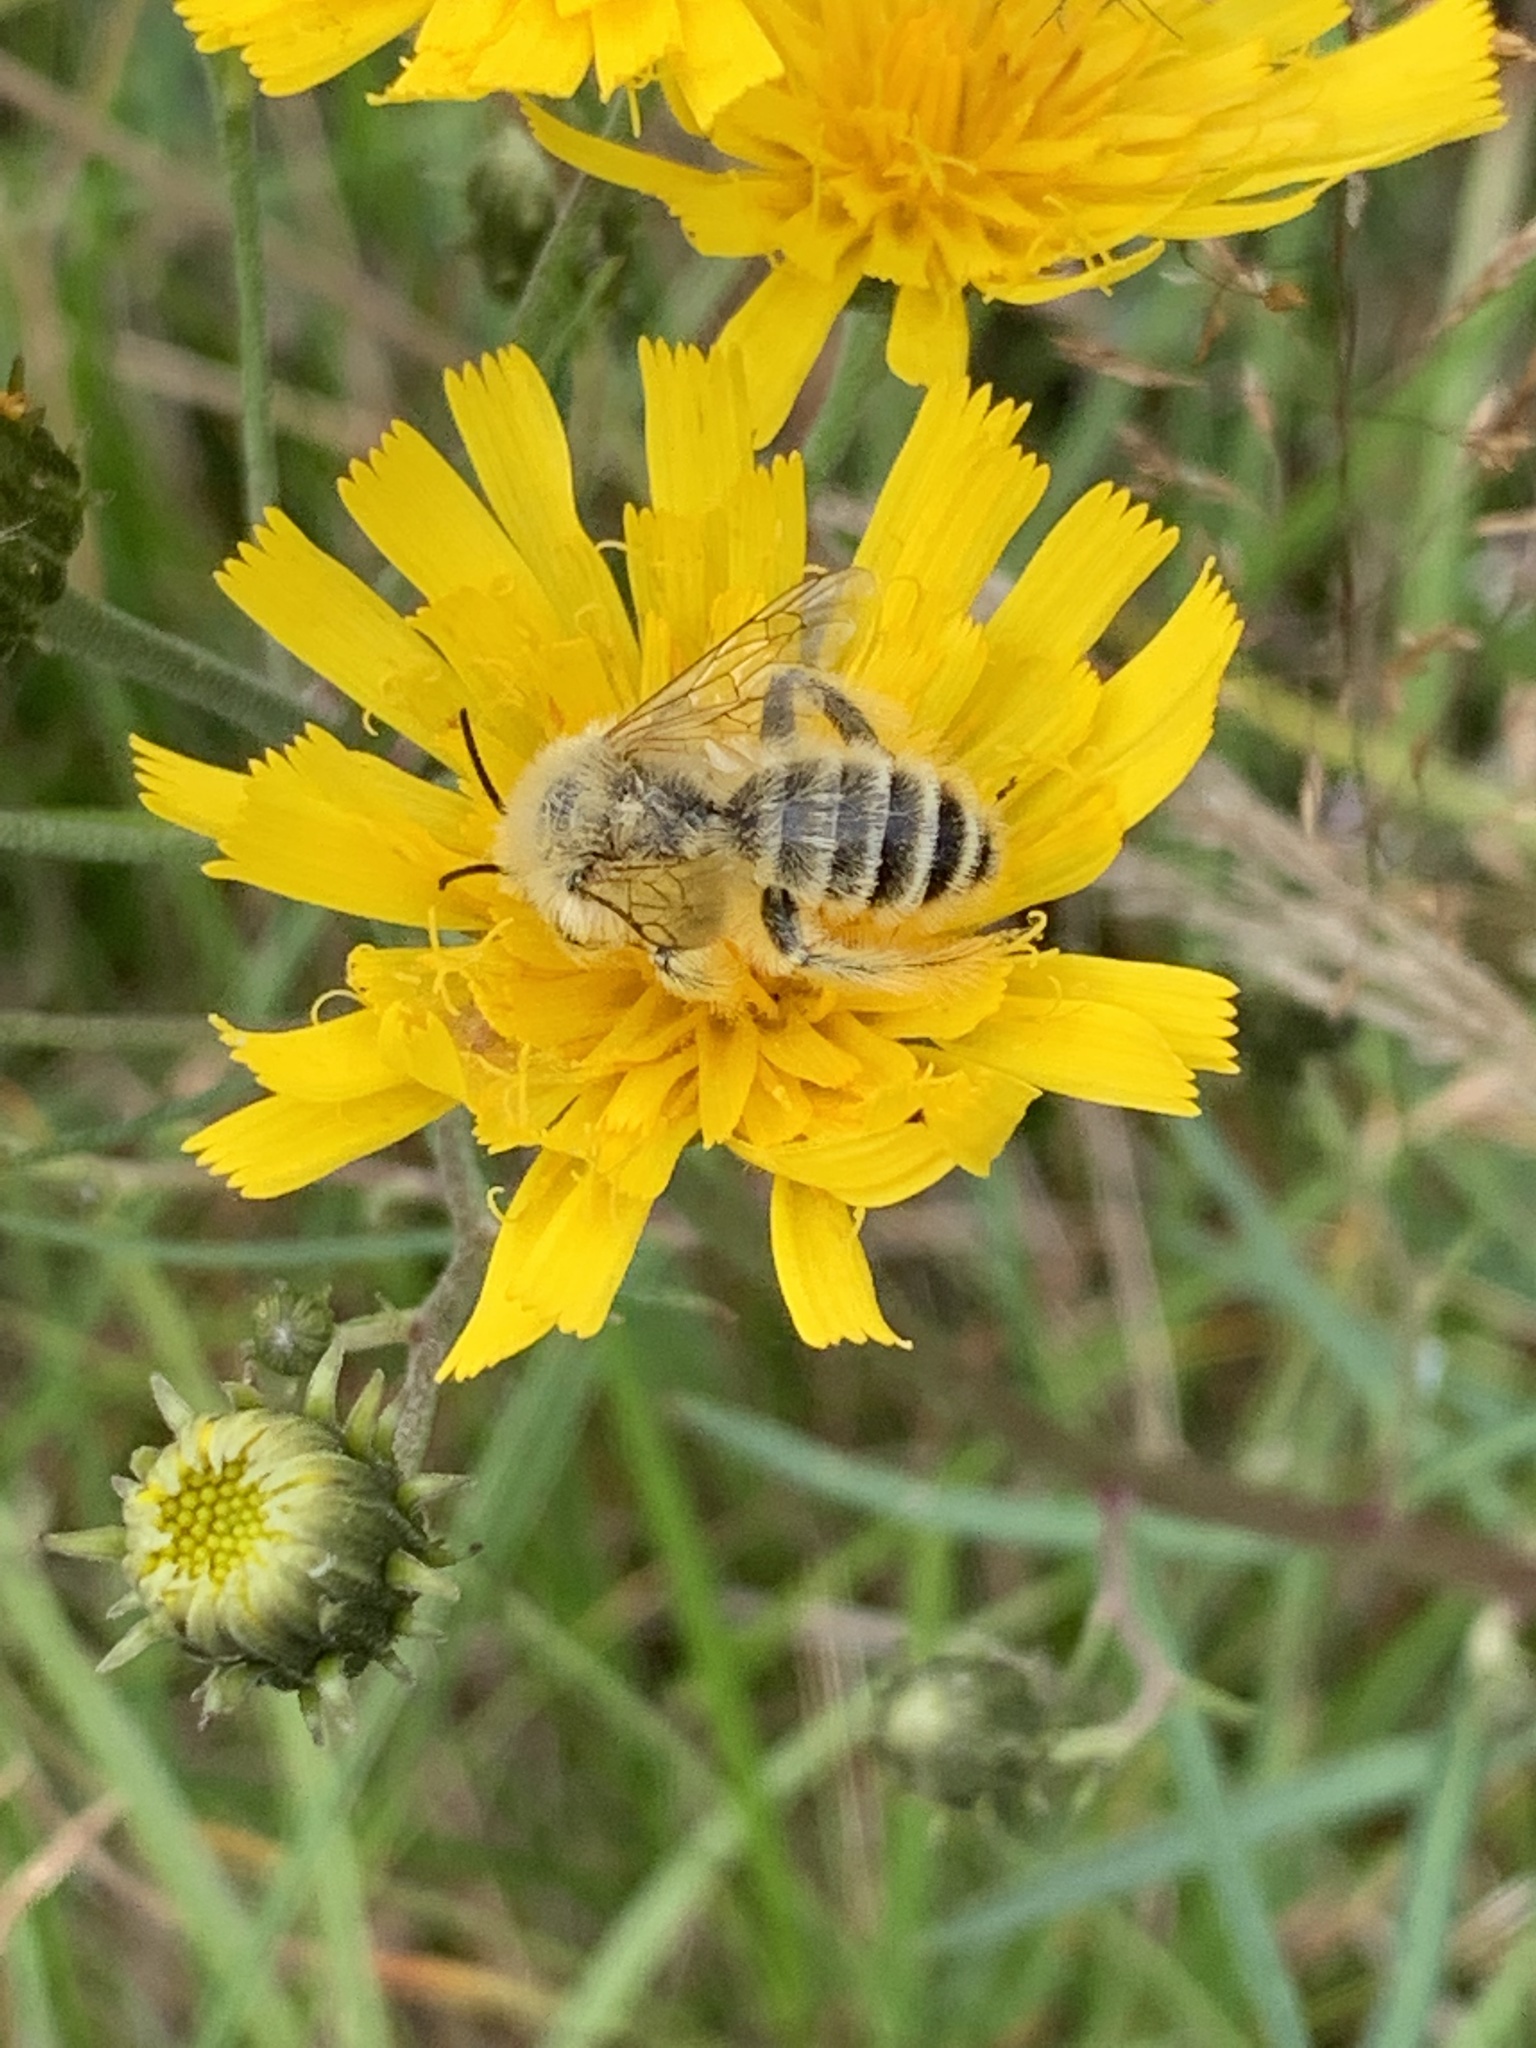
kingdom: Animalia
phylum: Arthropoda
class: Insecta
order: Hymenoptera
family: Melittidae
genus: Dasypoda
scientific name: Dasypoda hirtipes
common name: Pantaloon bee
